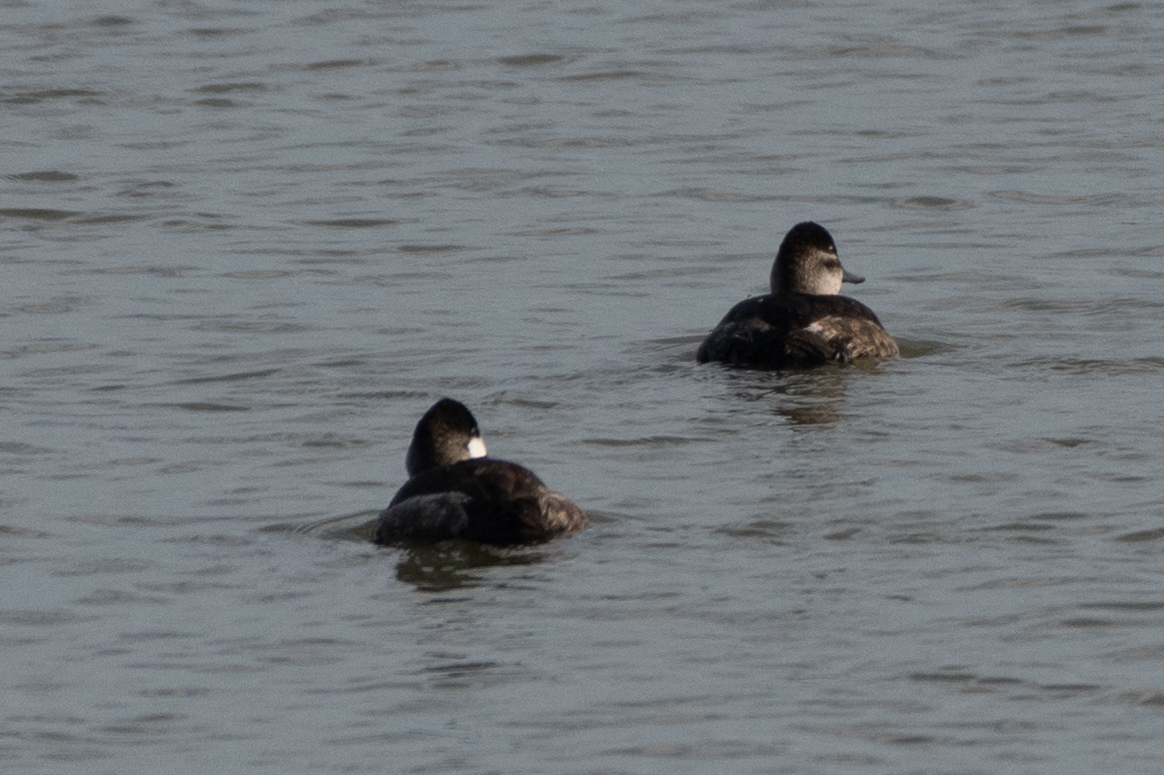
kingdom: Animalia
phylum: Chordata
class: Aves
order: Anseriformes
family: Anatidae
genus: Oxyura
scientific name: Oxyura jamaicensis
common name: Ruddy duck
